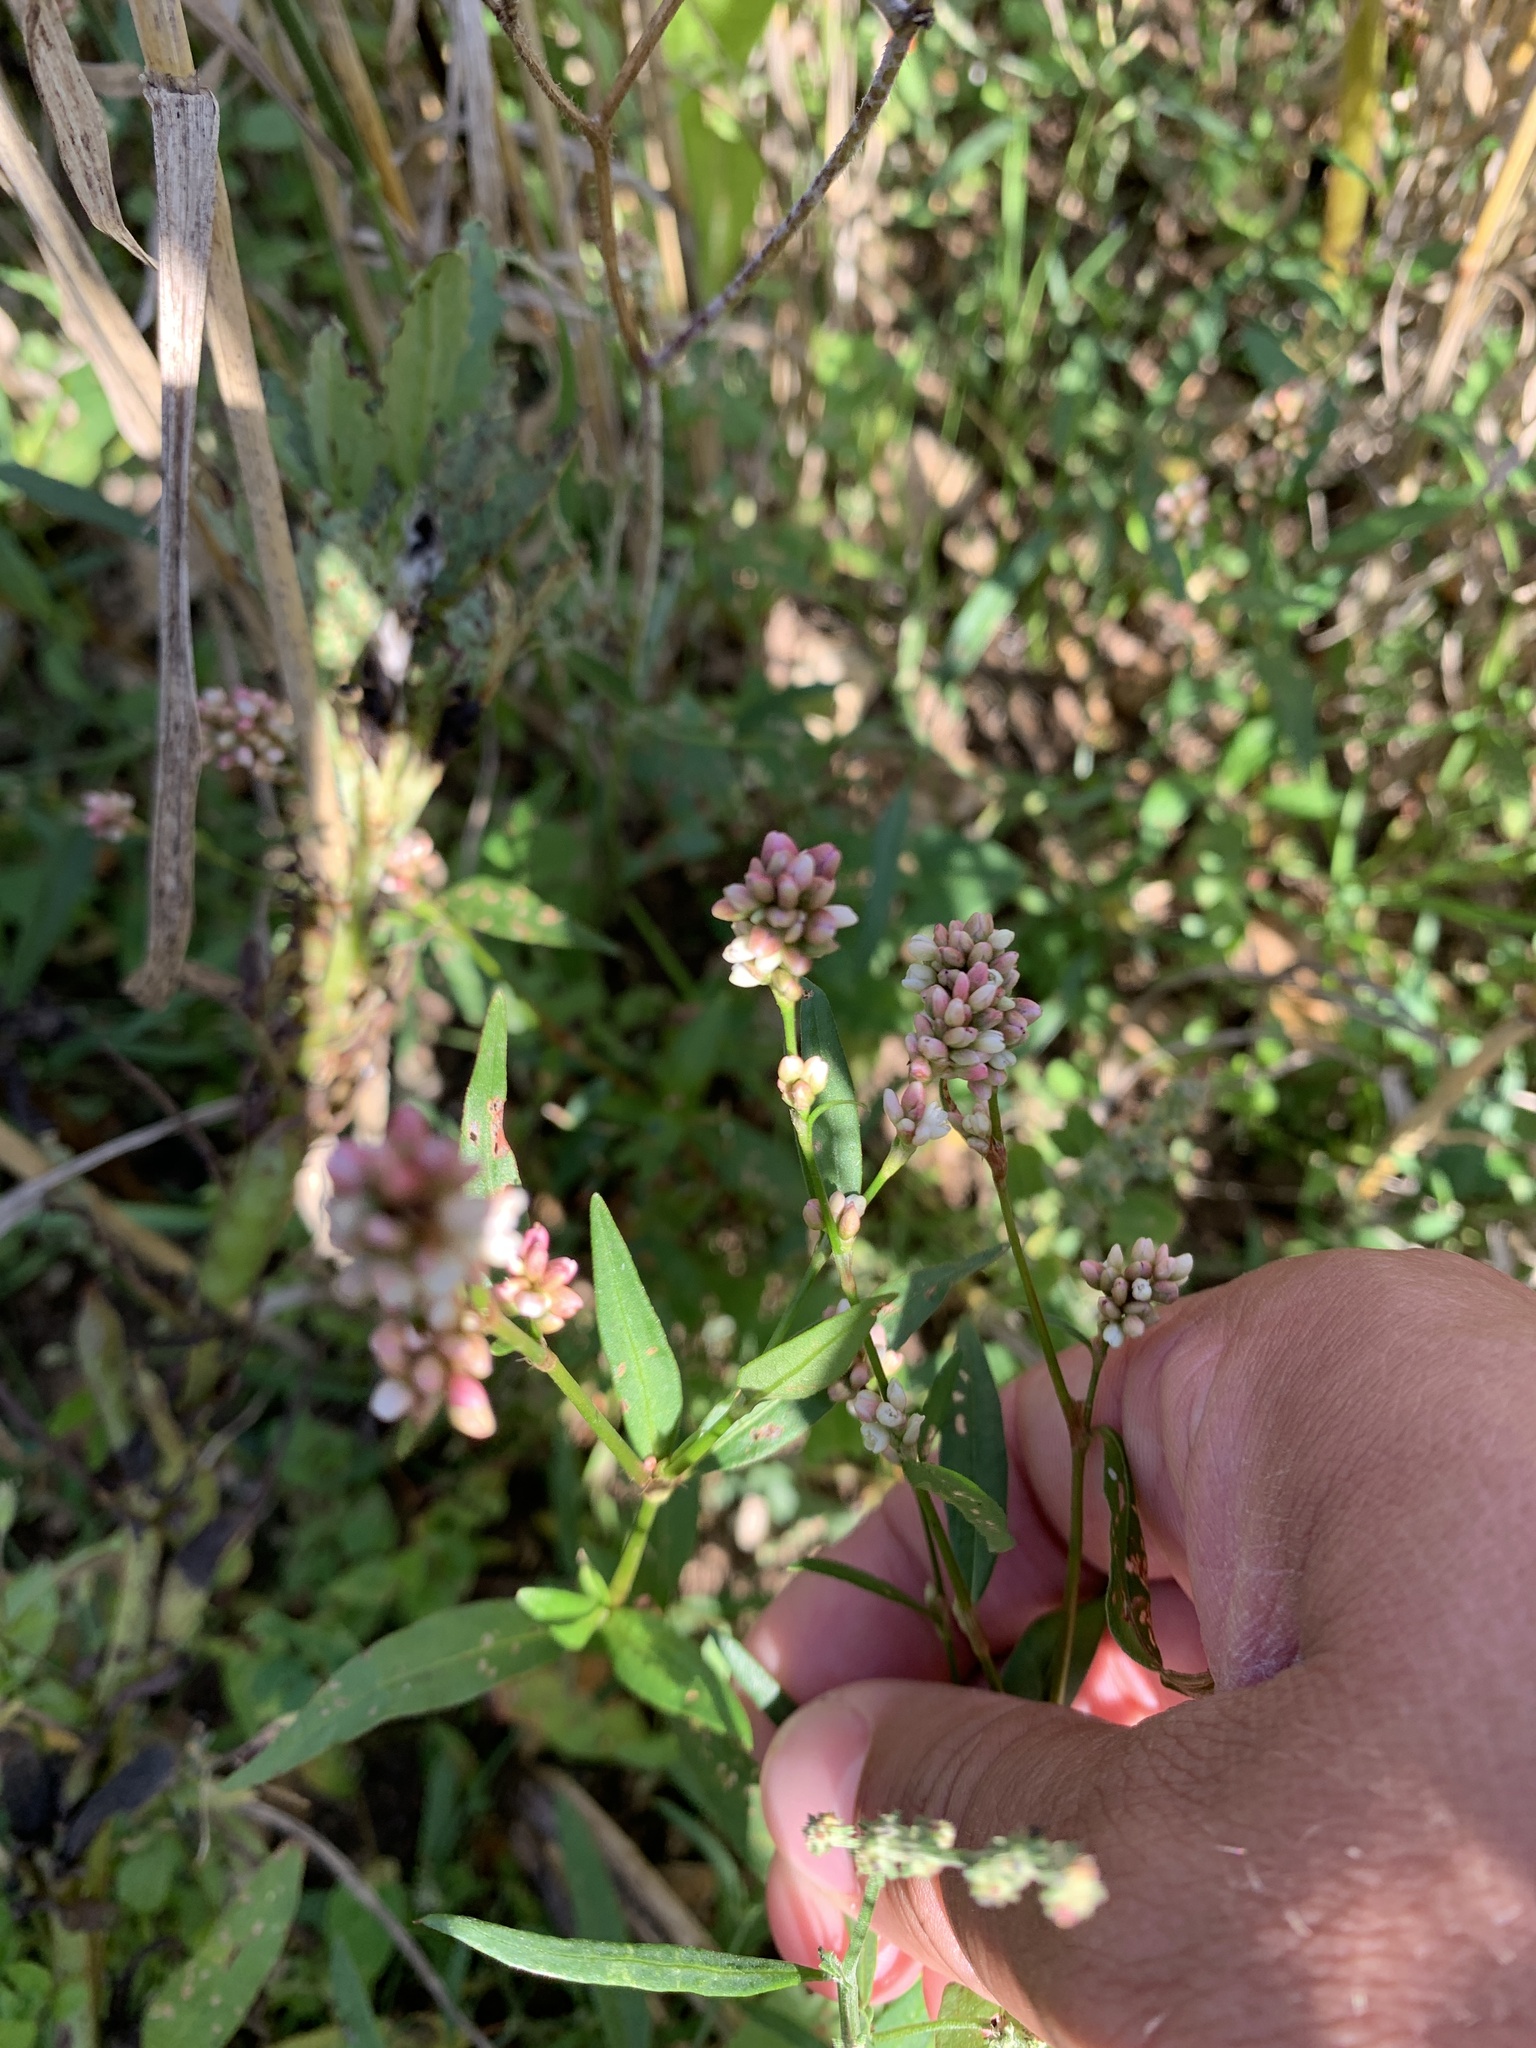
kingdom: Plantae
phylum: Tracheophyta
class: Magnoliopsida
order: Caryophyllales
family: Polygonaceae
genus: Persicaria
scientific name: Persicaria maculosa
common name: Redshank
